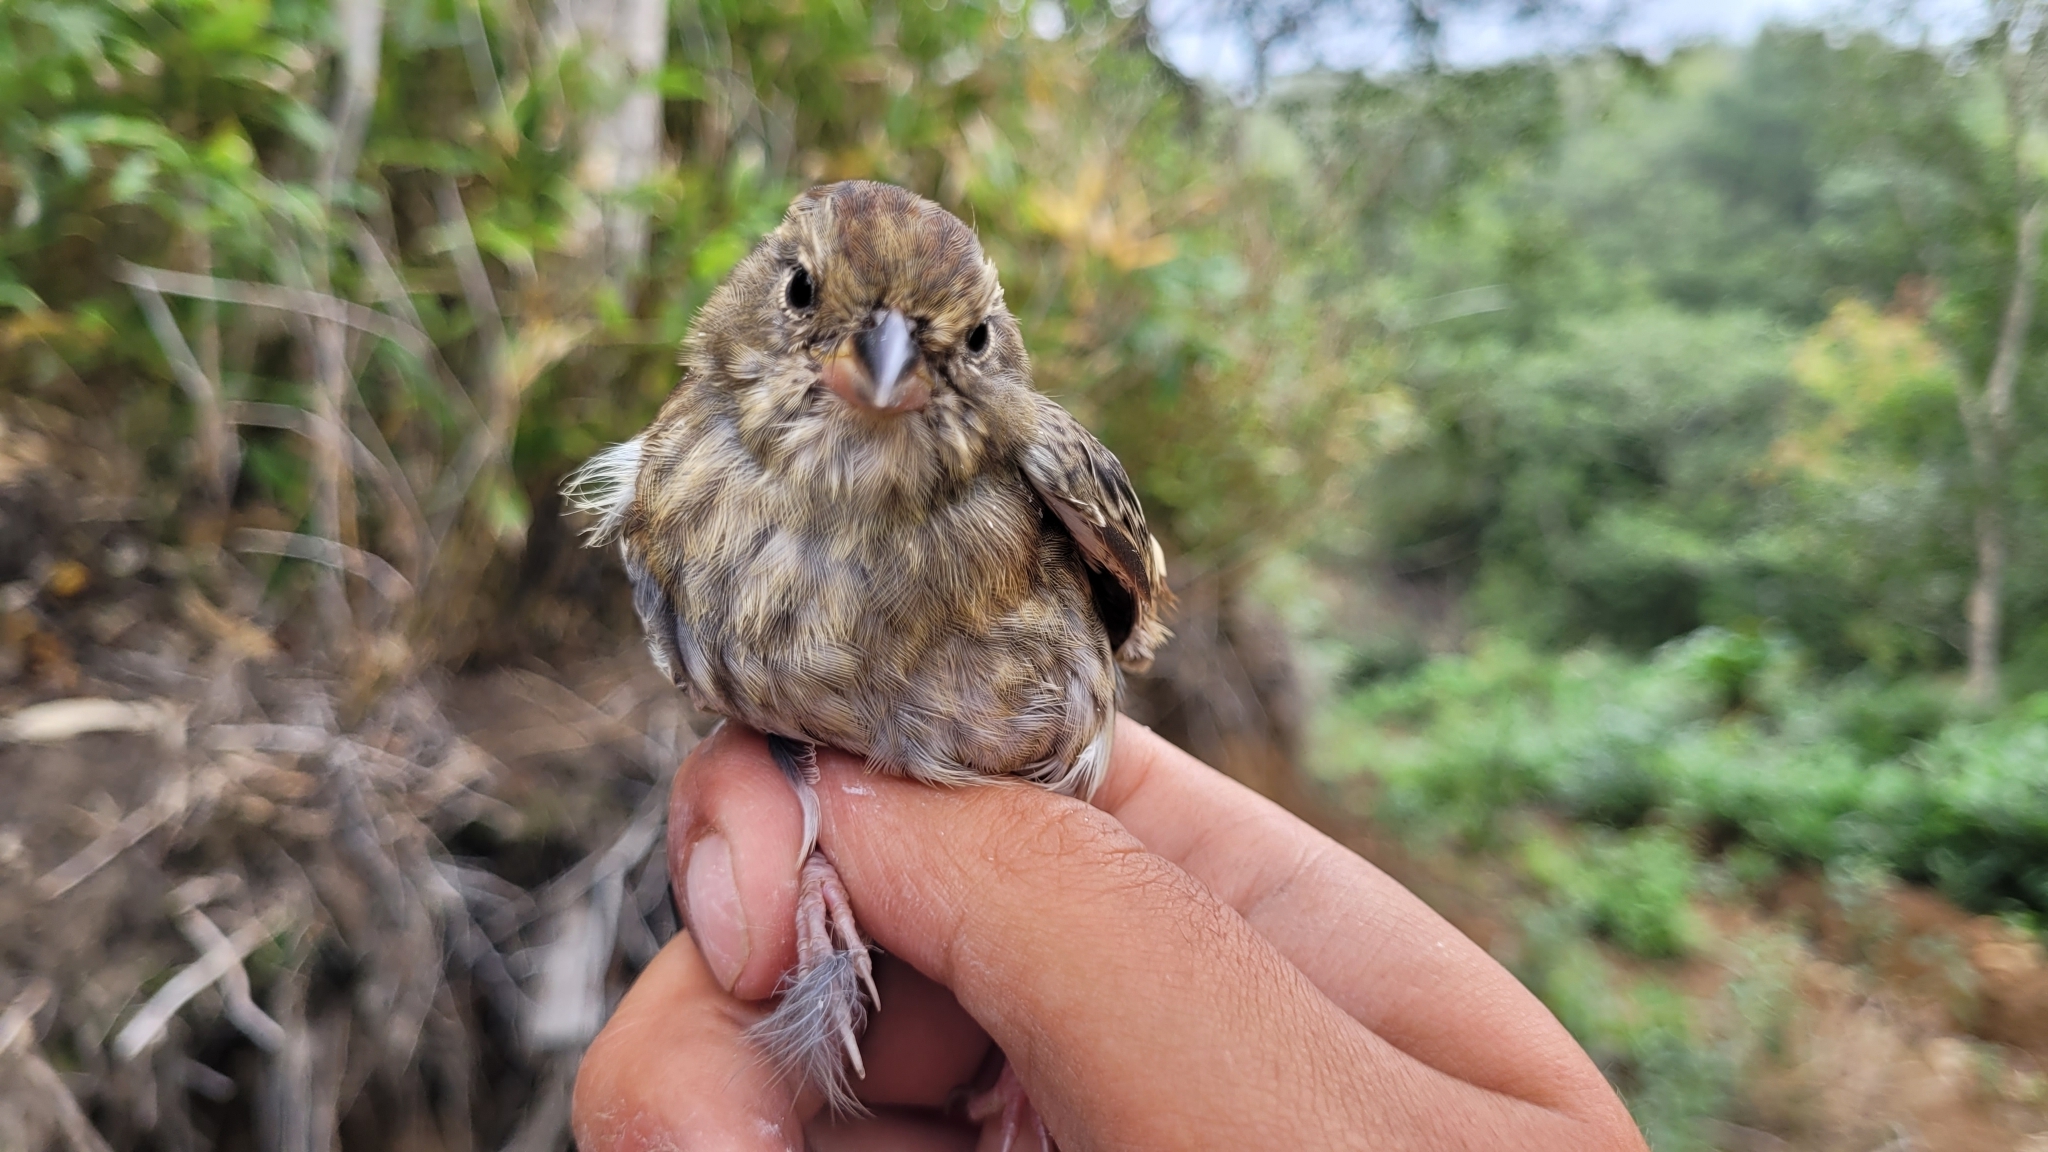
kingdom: Animalia
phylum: Chordata
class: Aves
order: Passeriformes
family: Emberizidae
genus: Emberiza
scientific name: Emberiza variabilis
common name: Gray bunting
